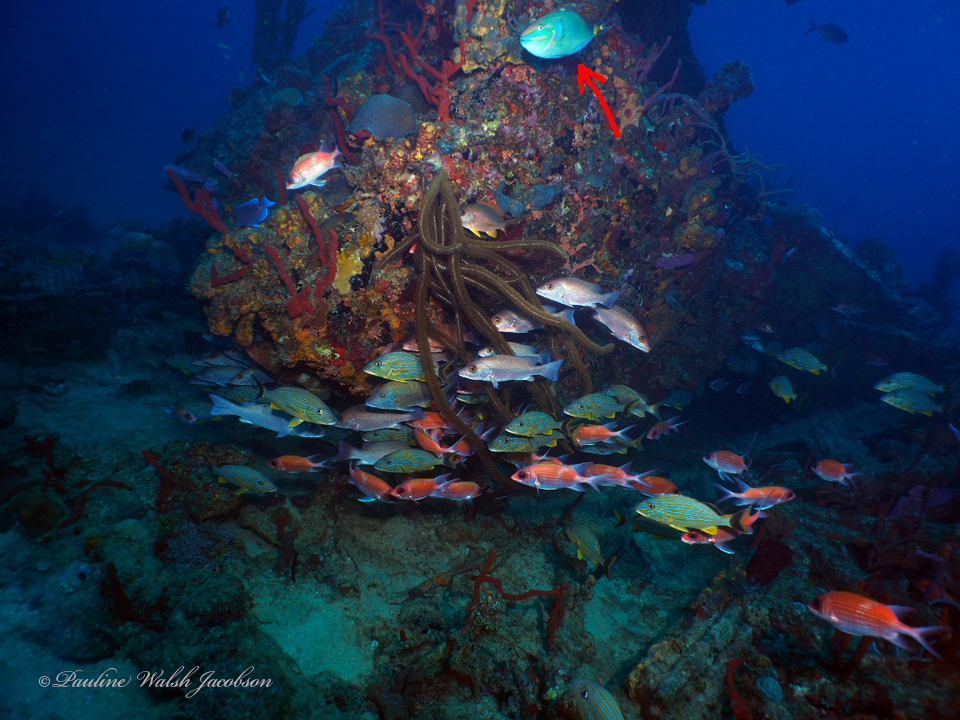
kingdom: Animalia
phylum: Chordata
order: Perciformes
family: Scaridae
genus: Sparisoma
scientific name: Sparisoma viride
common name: Stoplight parrotfish
